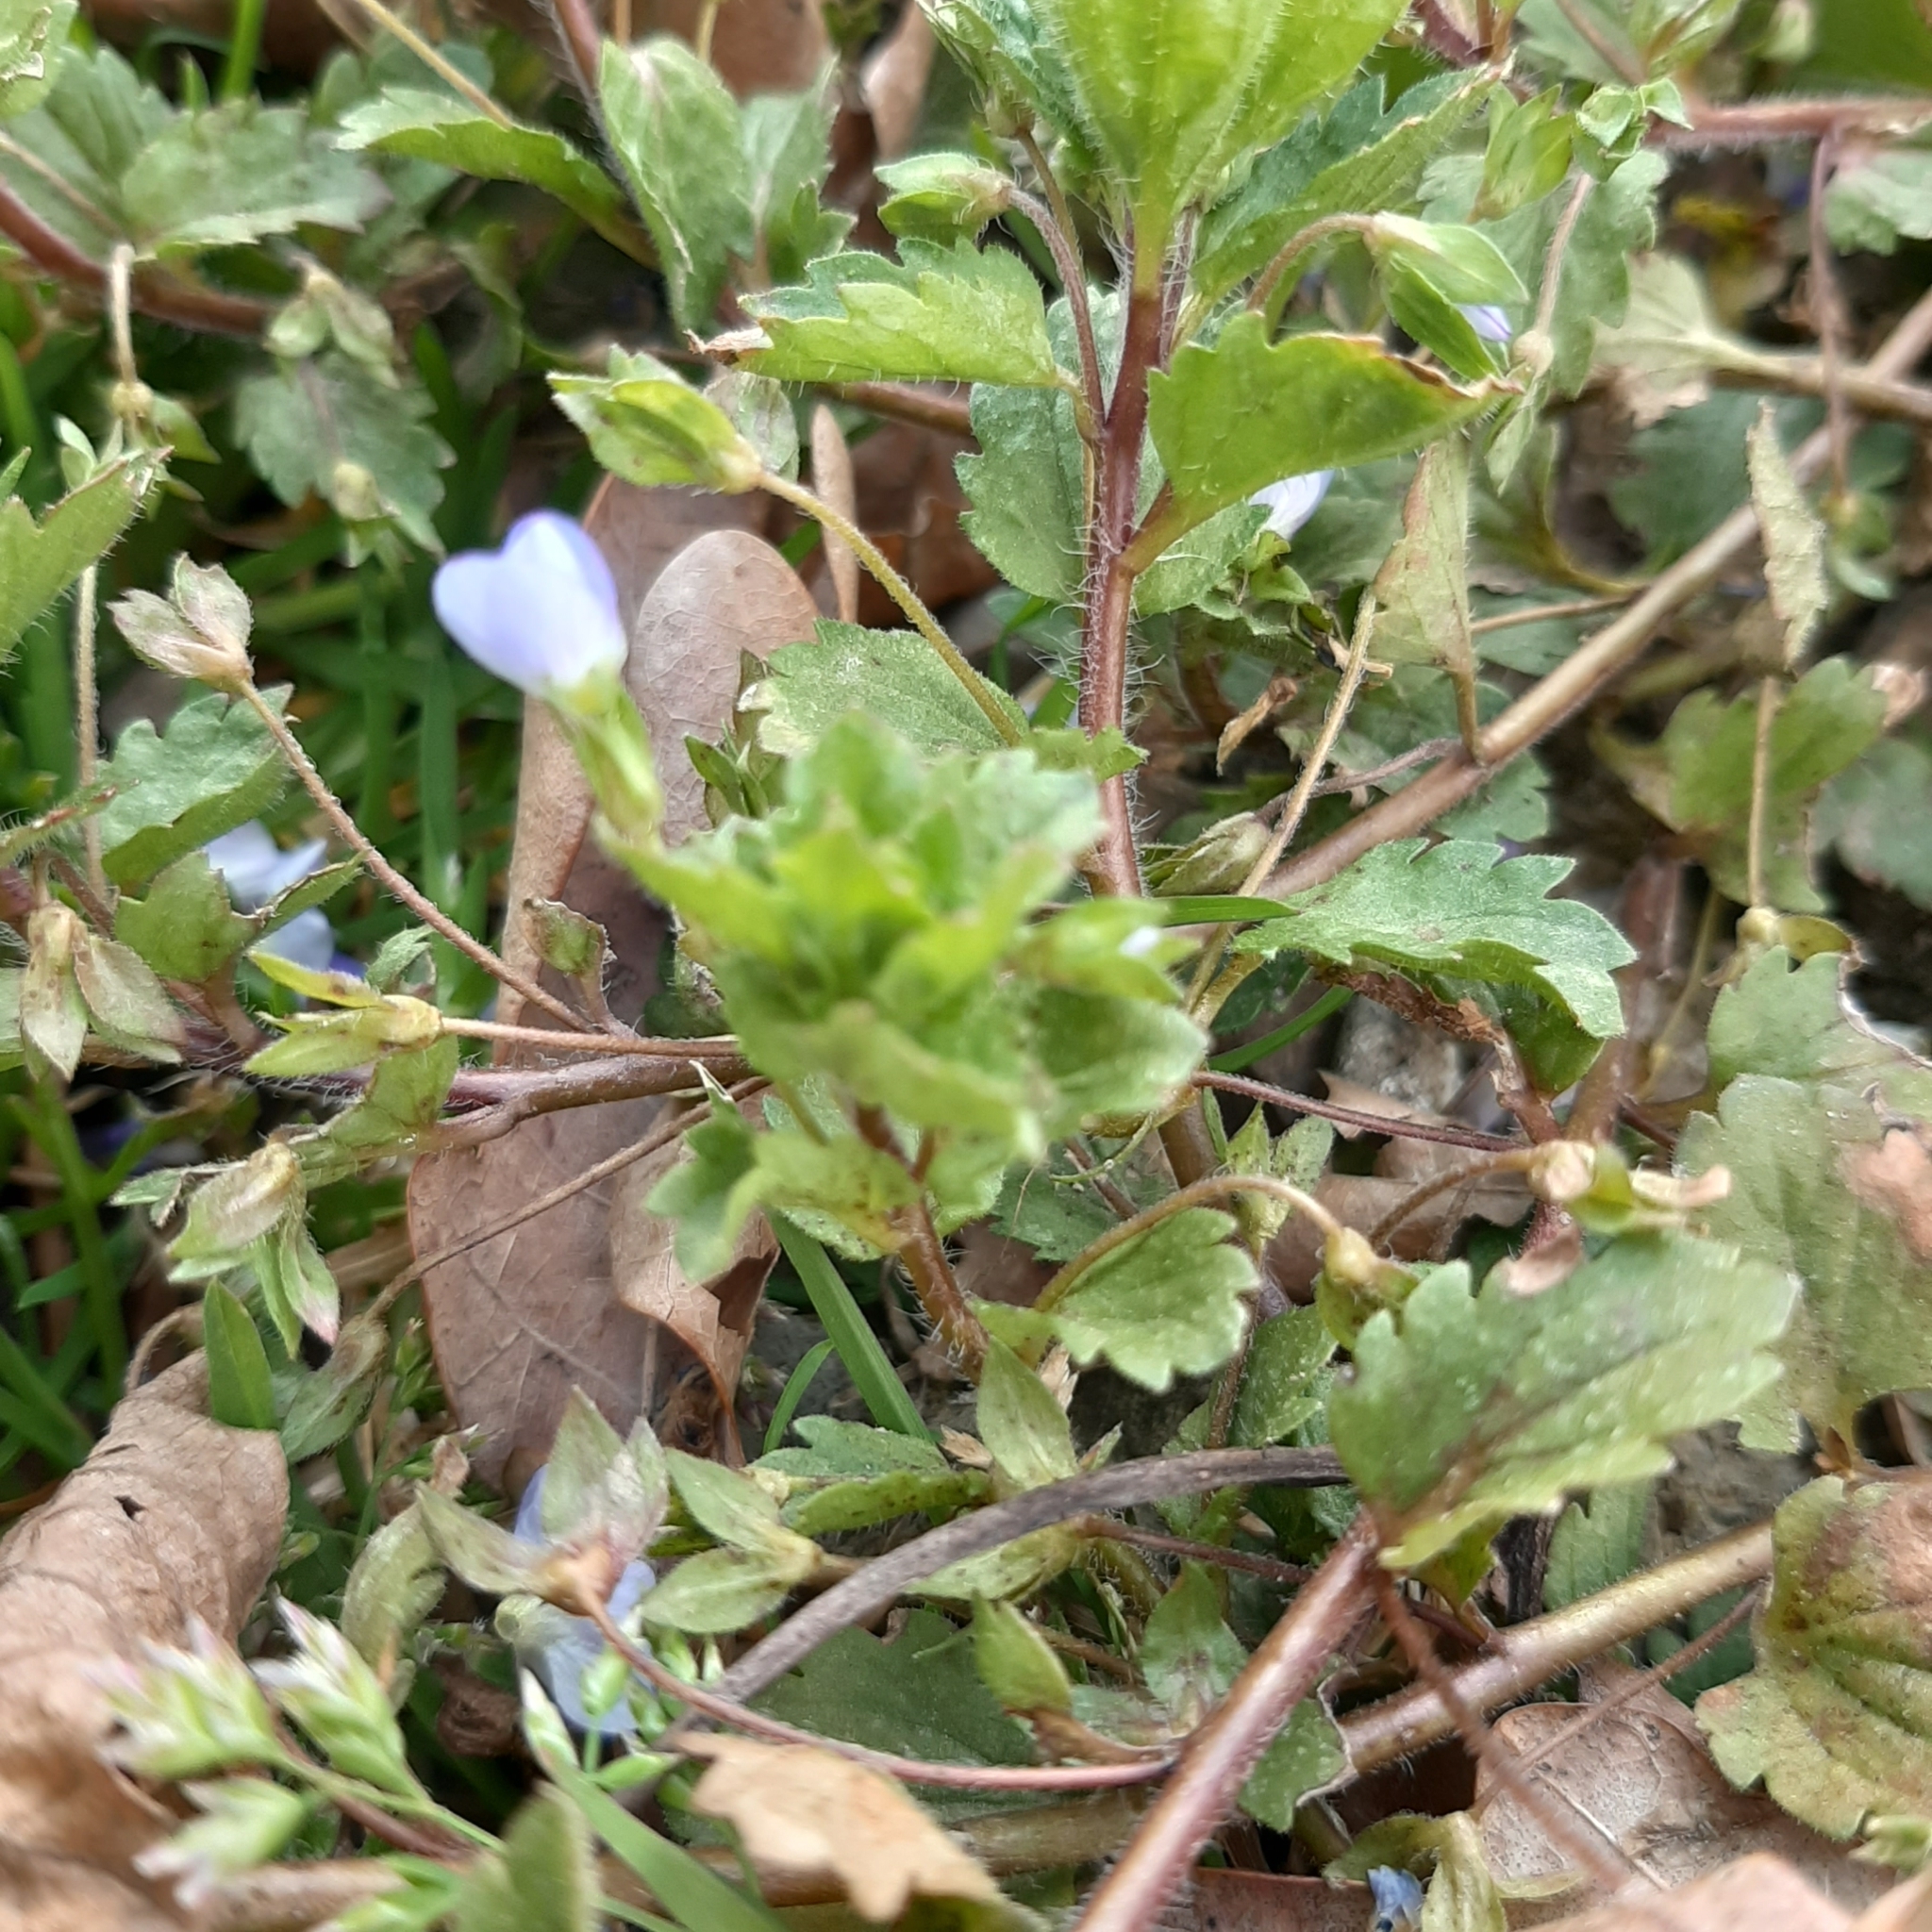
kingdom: Plantae
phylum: Tracheophyta
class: Magnoliopsida
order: Lamiales
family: Plantaginaceae
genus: Veronica
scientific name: Veronica persica
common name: Common field-speedwell
